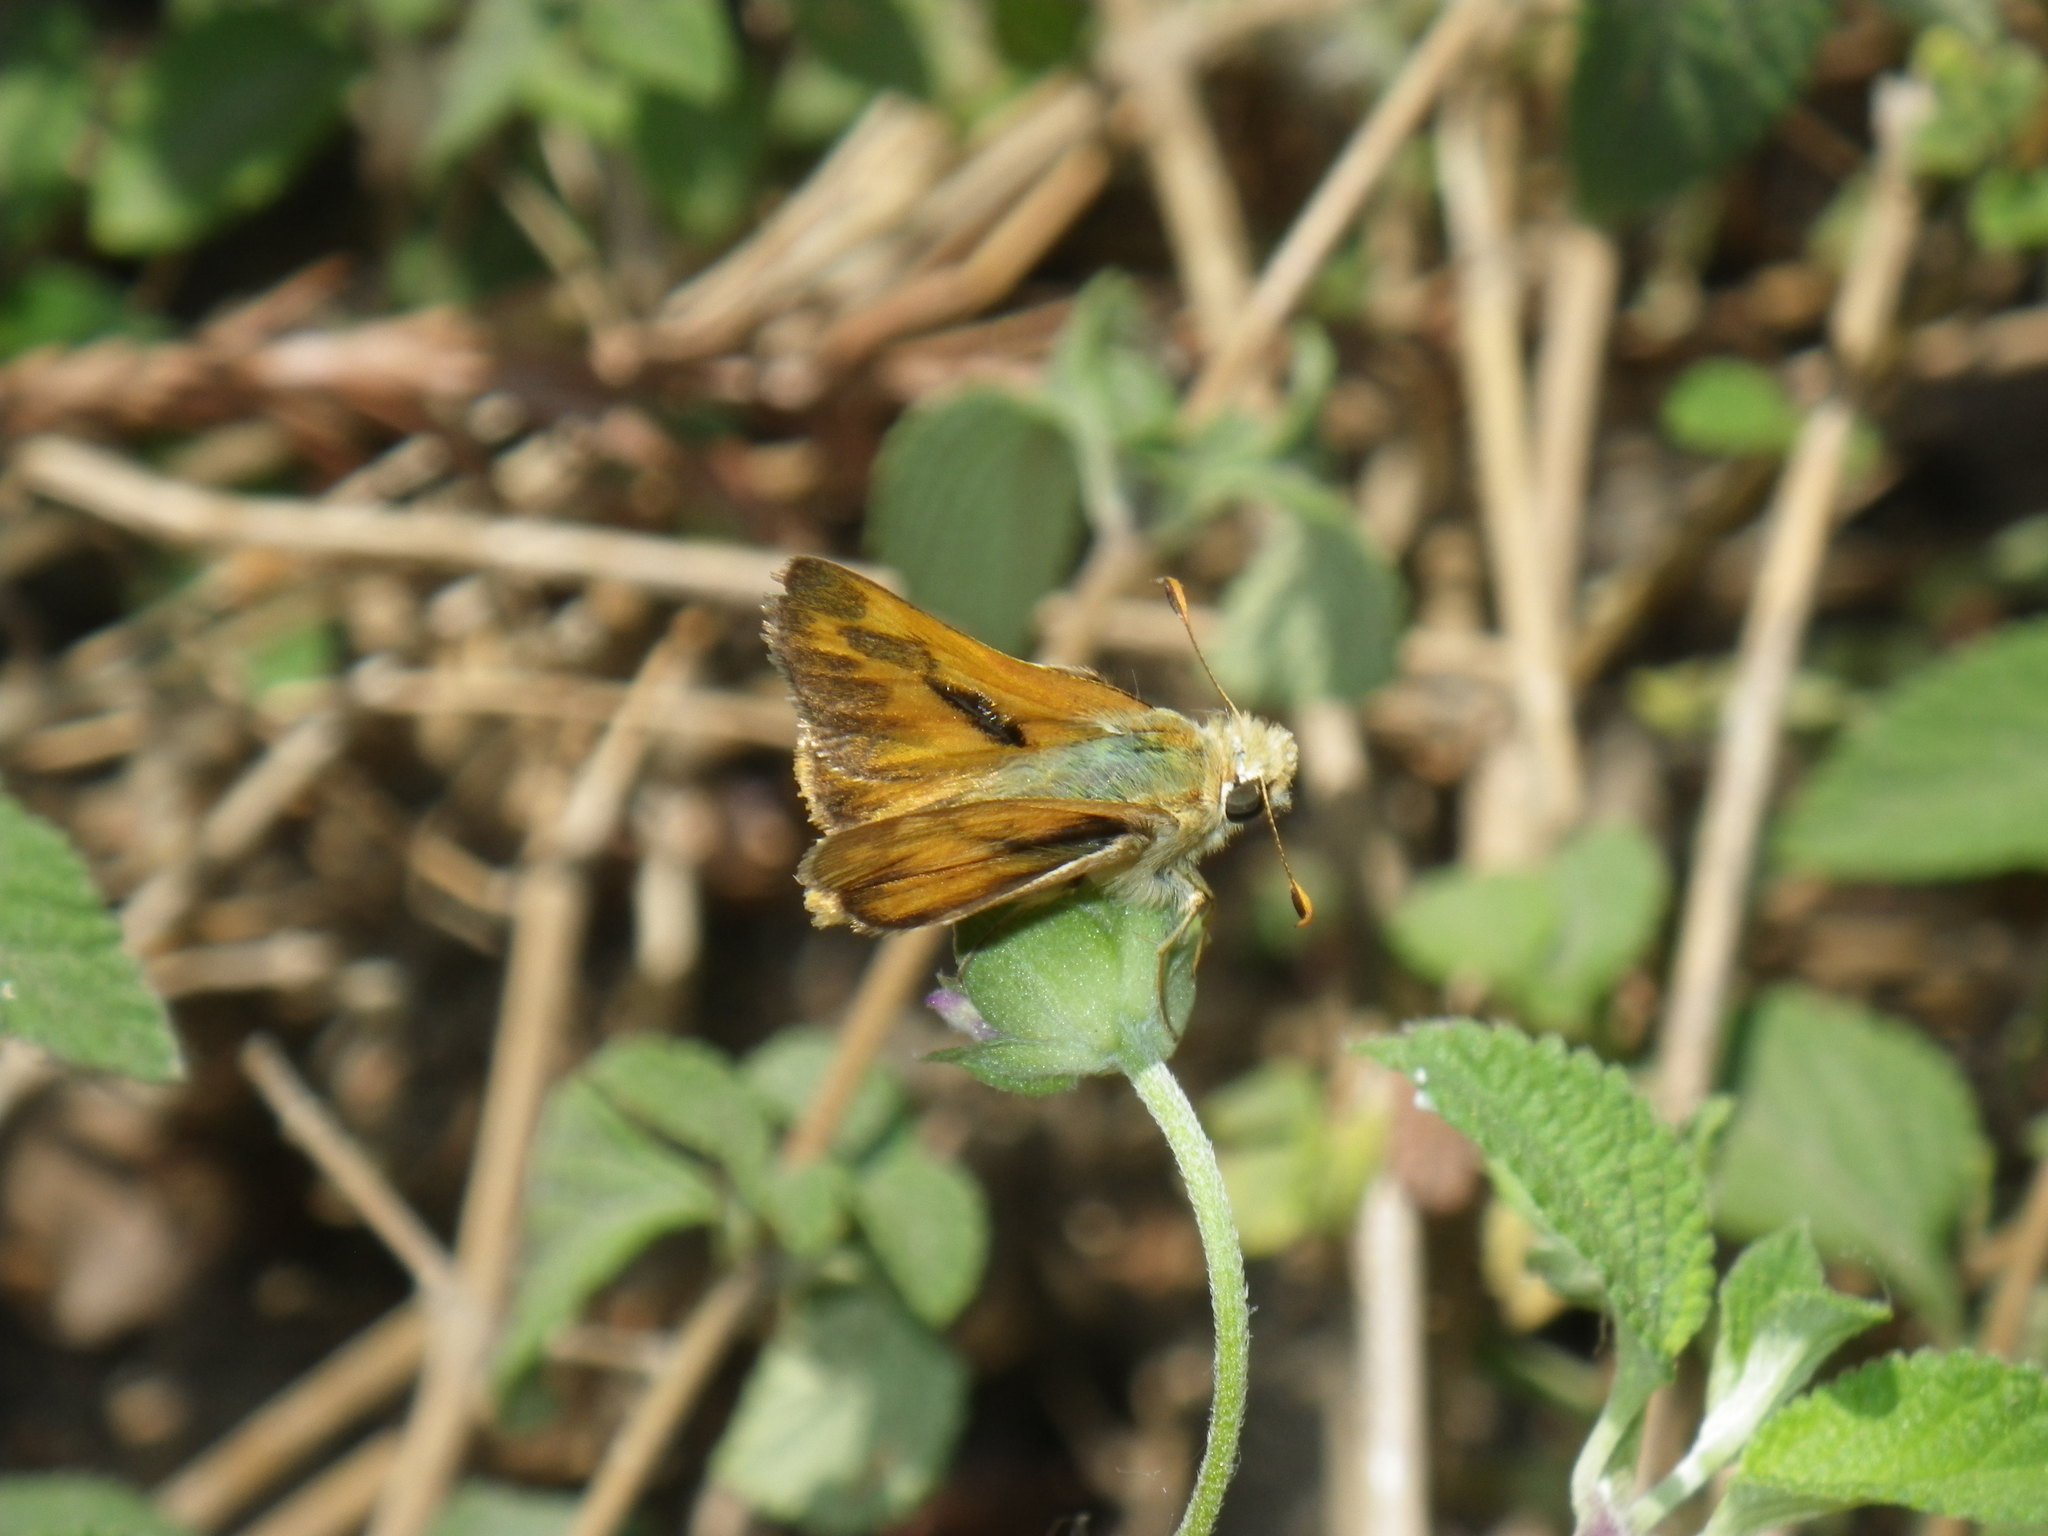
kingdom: Animalia
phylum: Arthropoda
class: Insecta
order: Lepidoptera
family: Hesperiidae
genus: Ochlodes
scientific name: Ochlodes sylvanoides
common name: Woodland skipper
